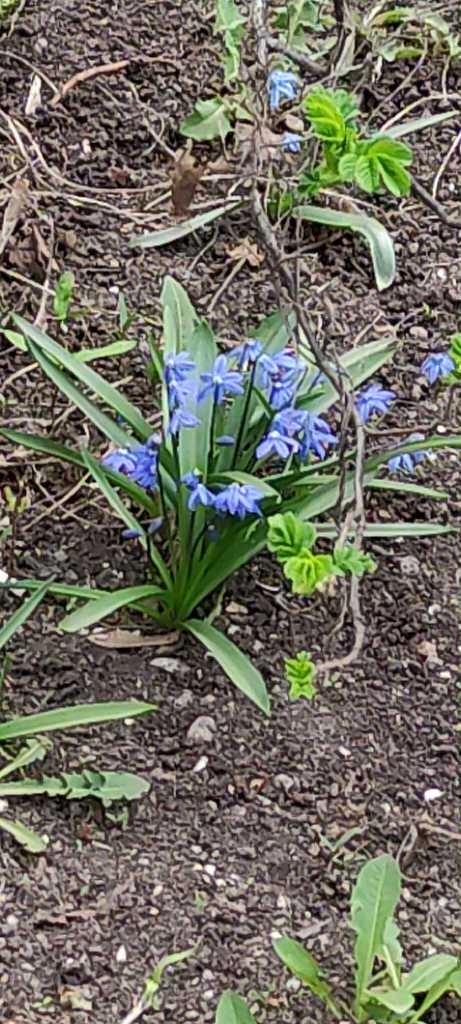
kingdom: Plantae
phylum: Tracheophyta
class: Liliopsida
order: Asparagales
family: Asparagaceae
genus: Scilla
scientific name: Scilla siberica
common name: Siberian squill
